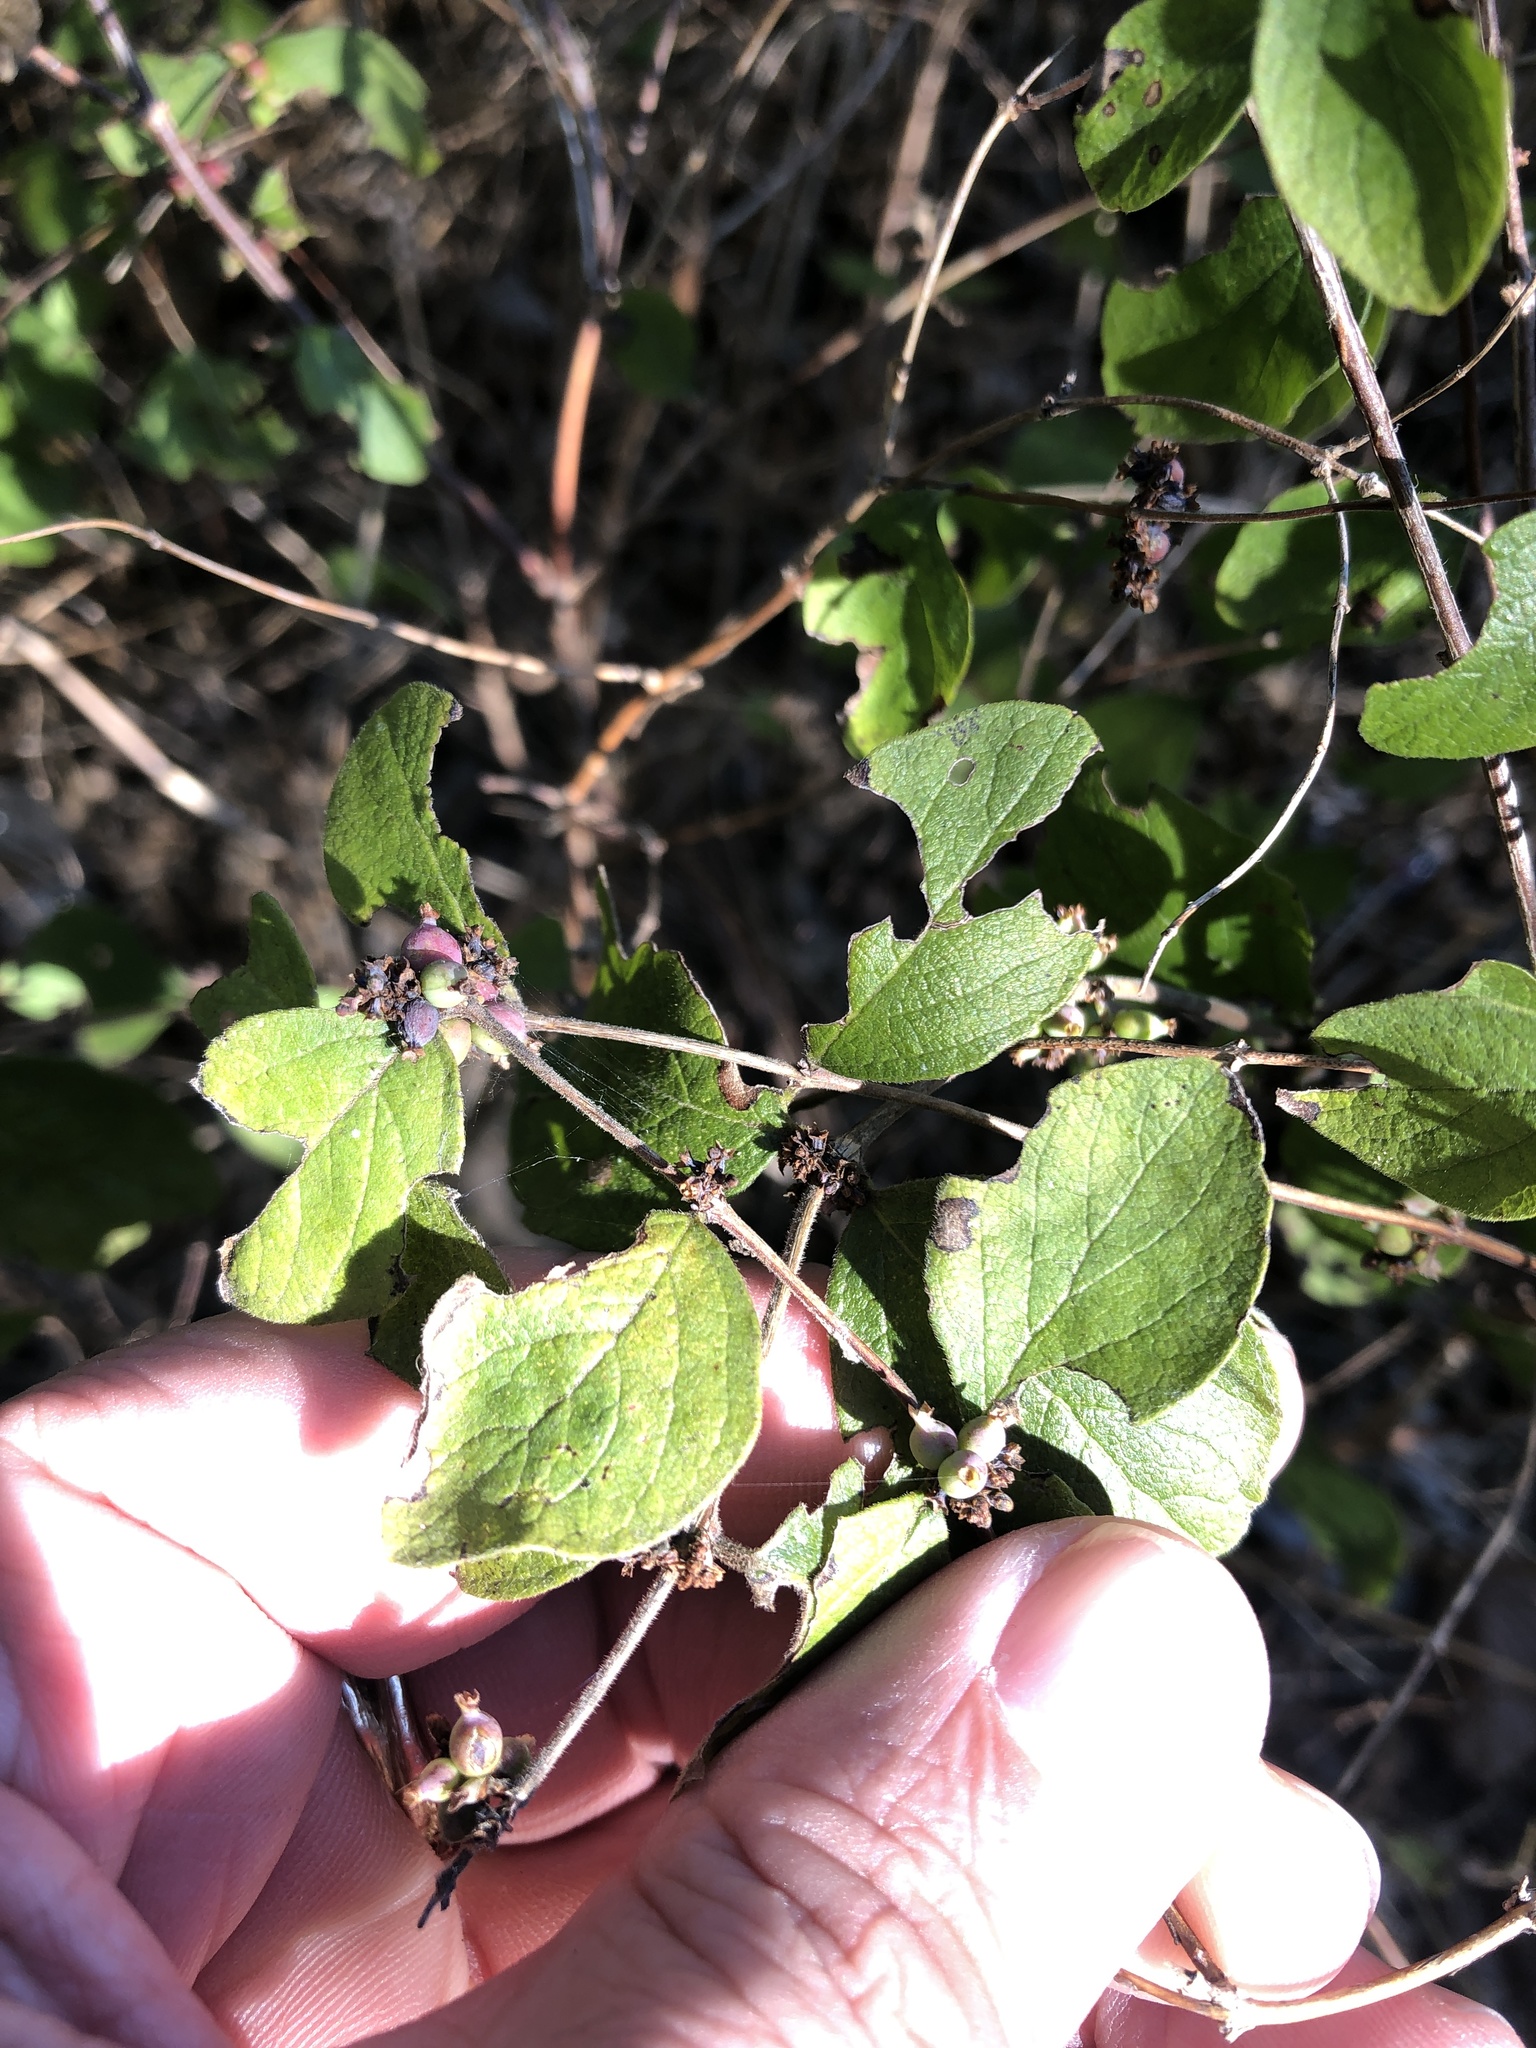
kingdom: Plantae
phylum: Tracheophyta
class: Magnoliopsida
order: Dipsacales
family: Caprifoliaceae
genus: Symphoricarpos
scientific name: Symphoricarpos orbiculatus
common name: Coralberry
